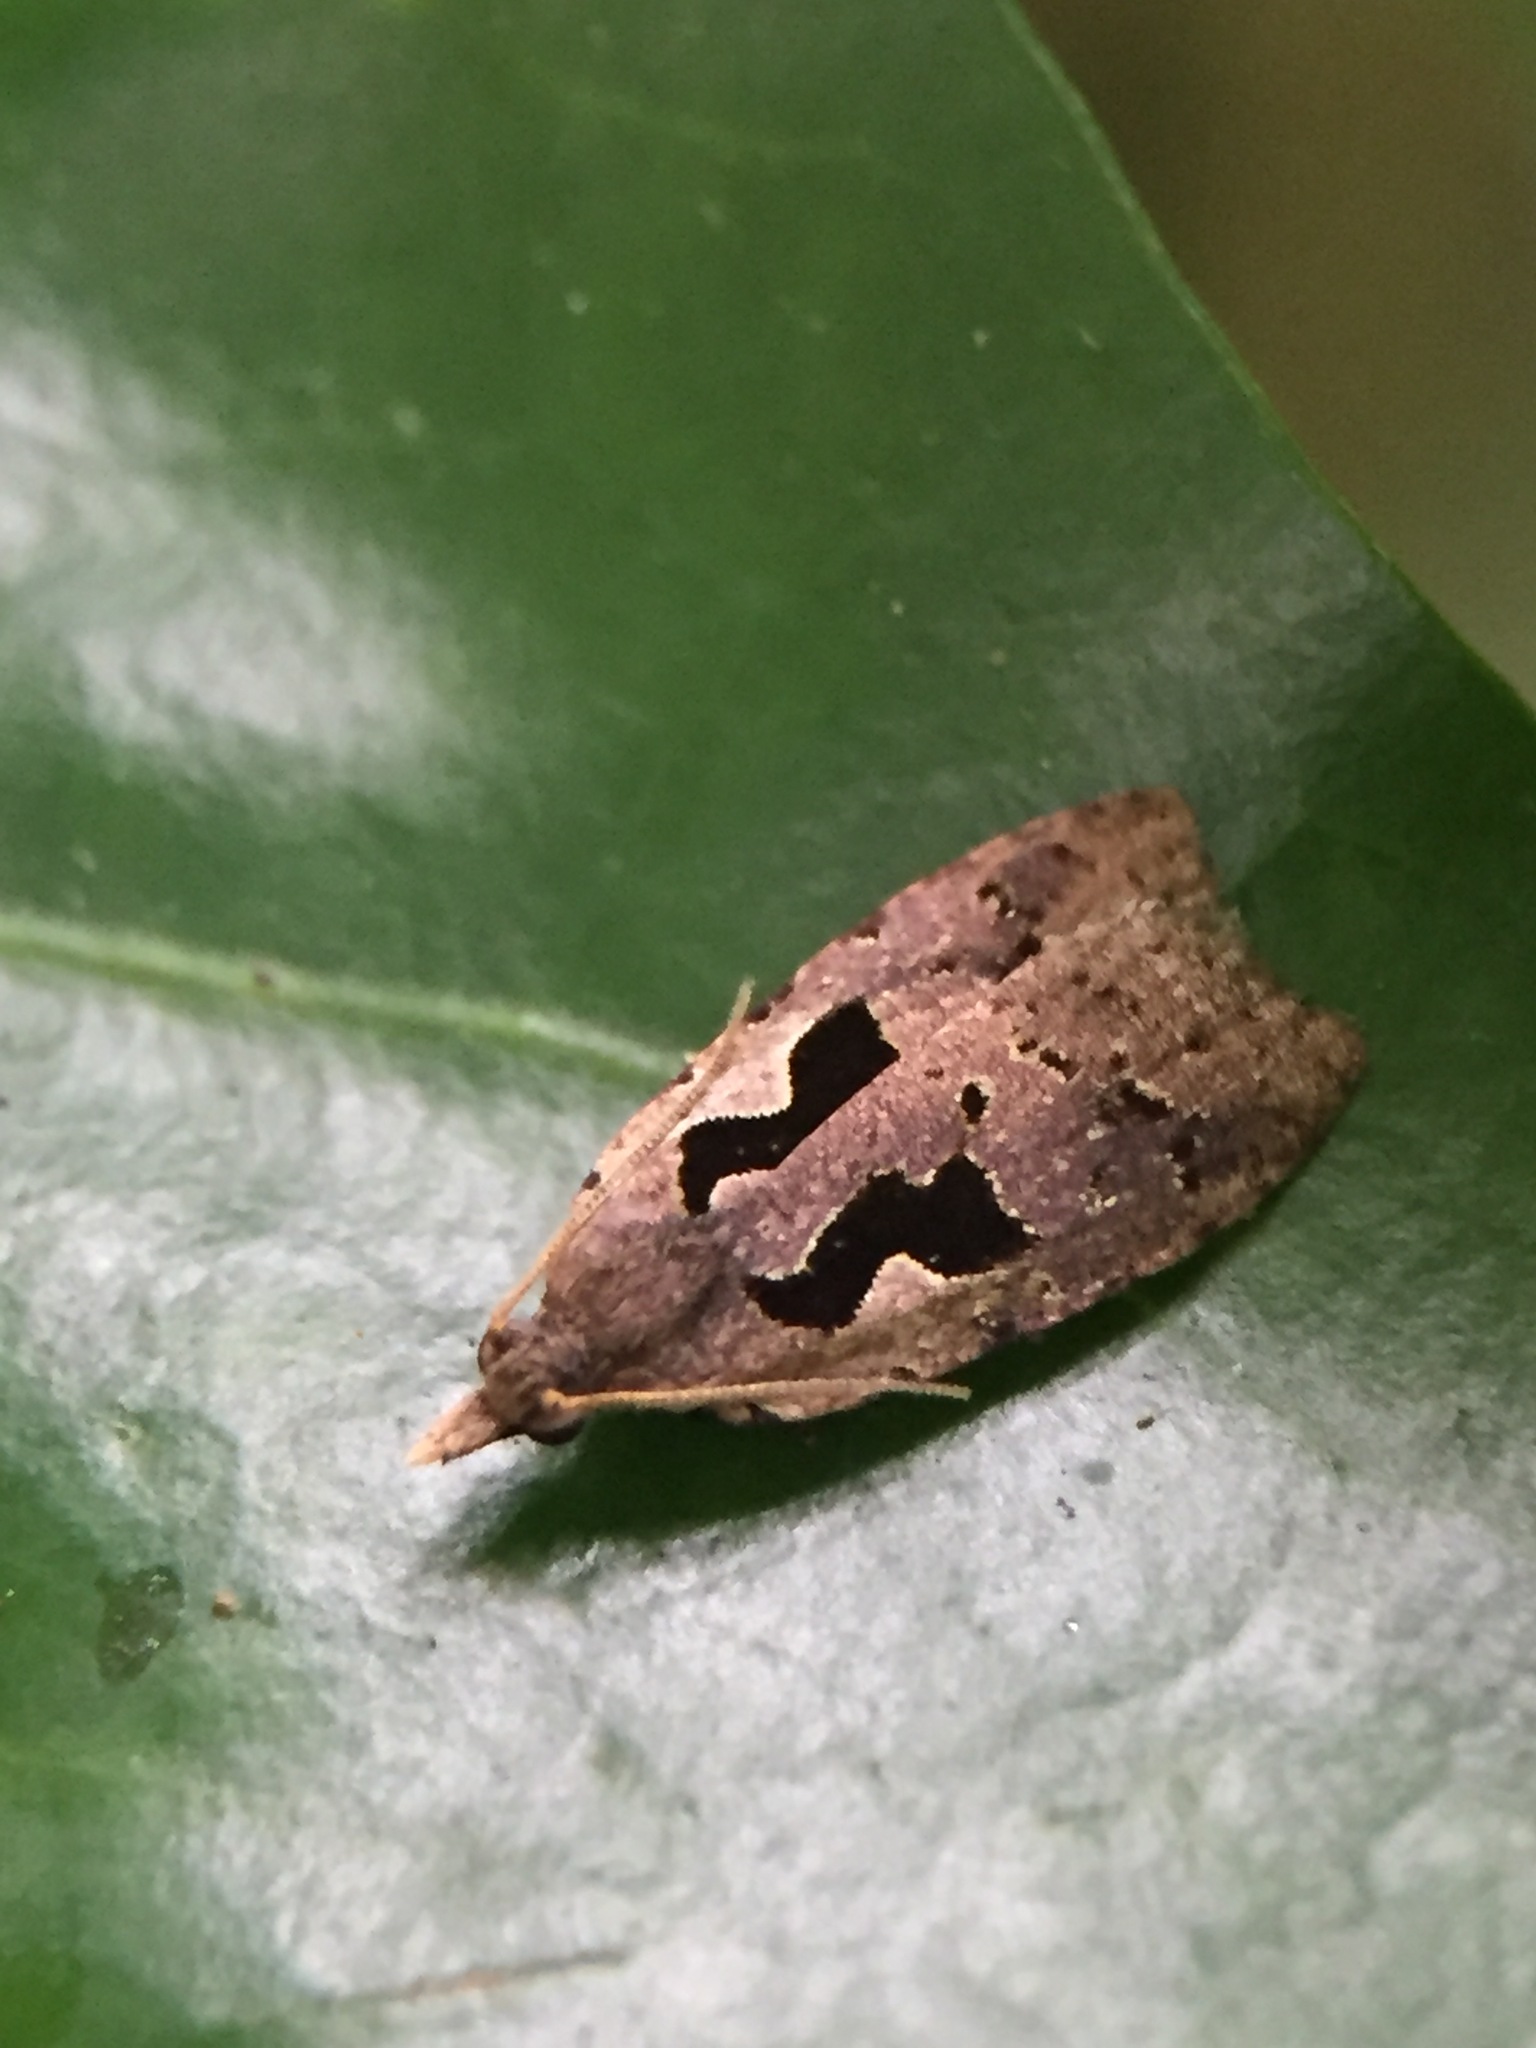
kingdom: Animalia
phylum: Arthropoda
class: Insecta
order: Lepidoptera
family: Tortricidae
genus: Cnephasia
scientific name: Cnephasia jactatana
